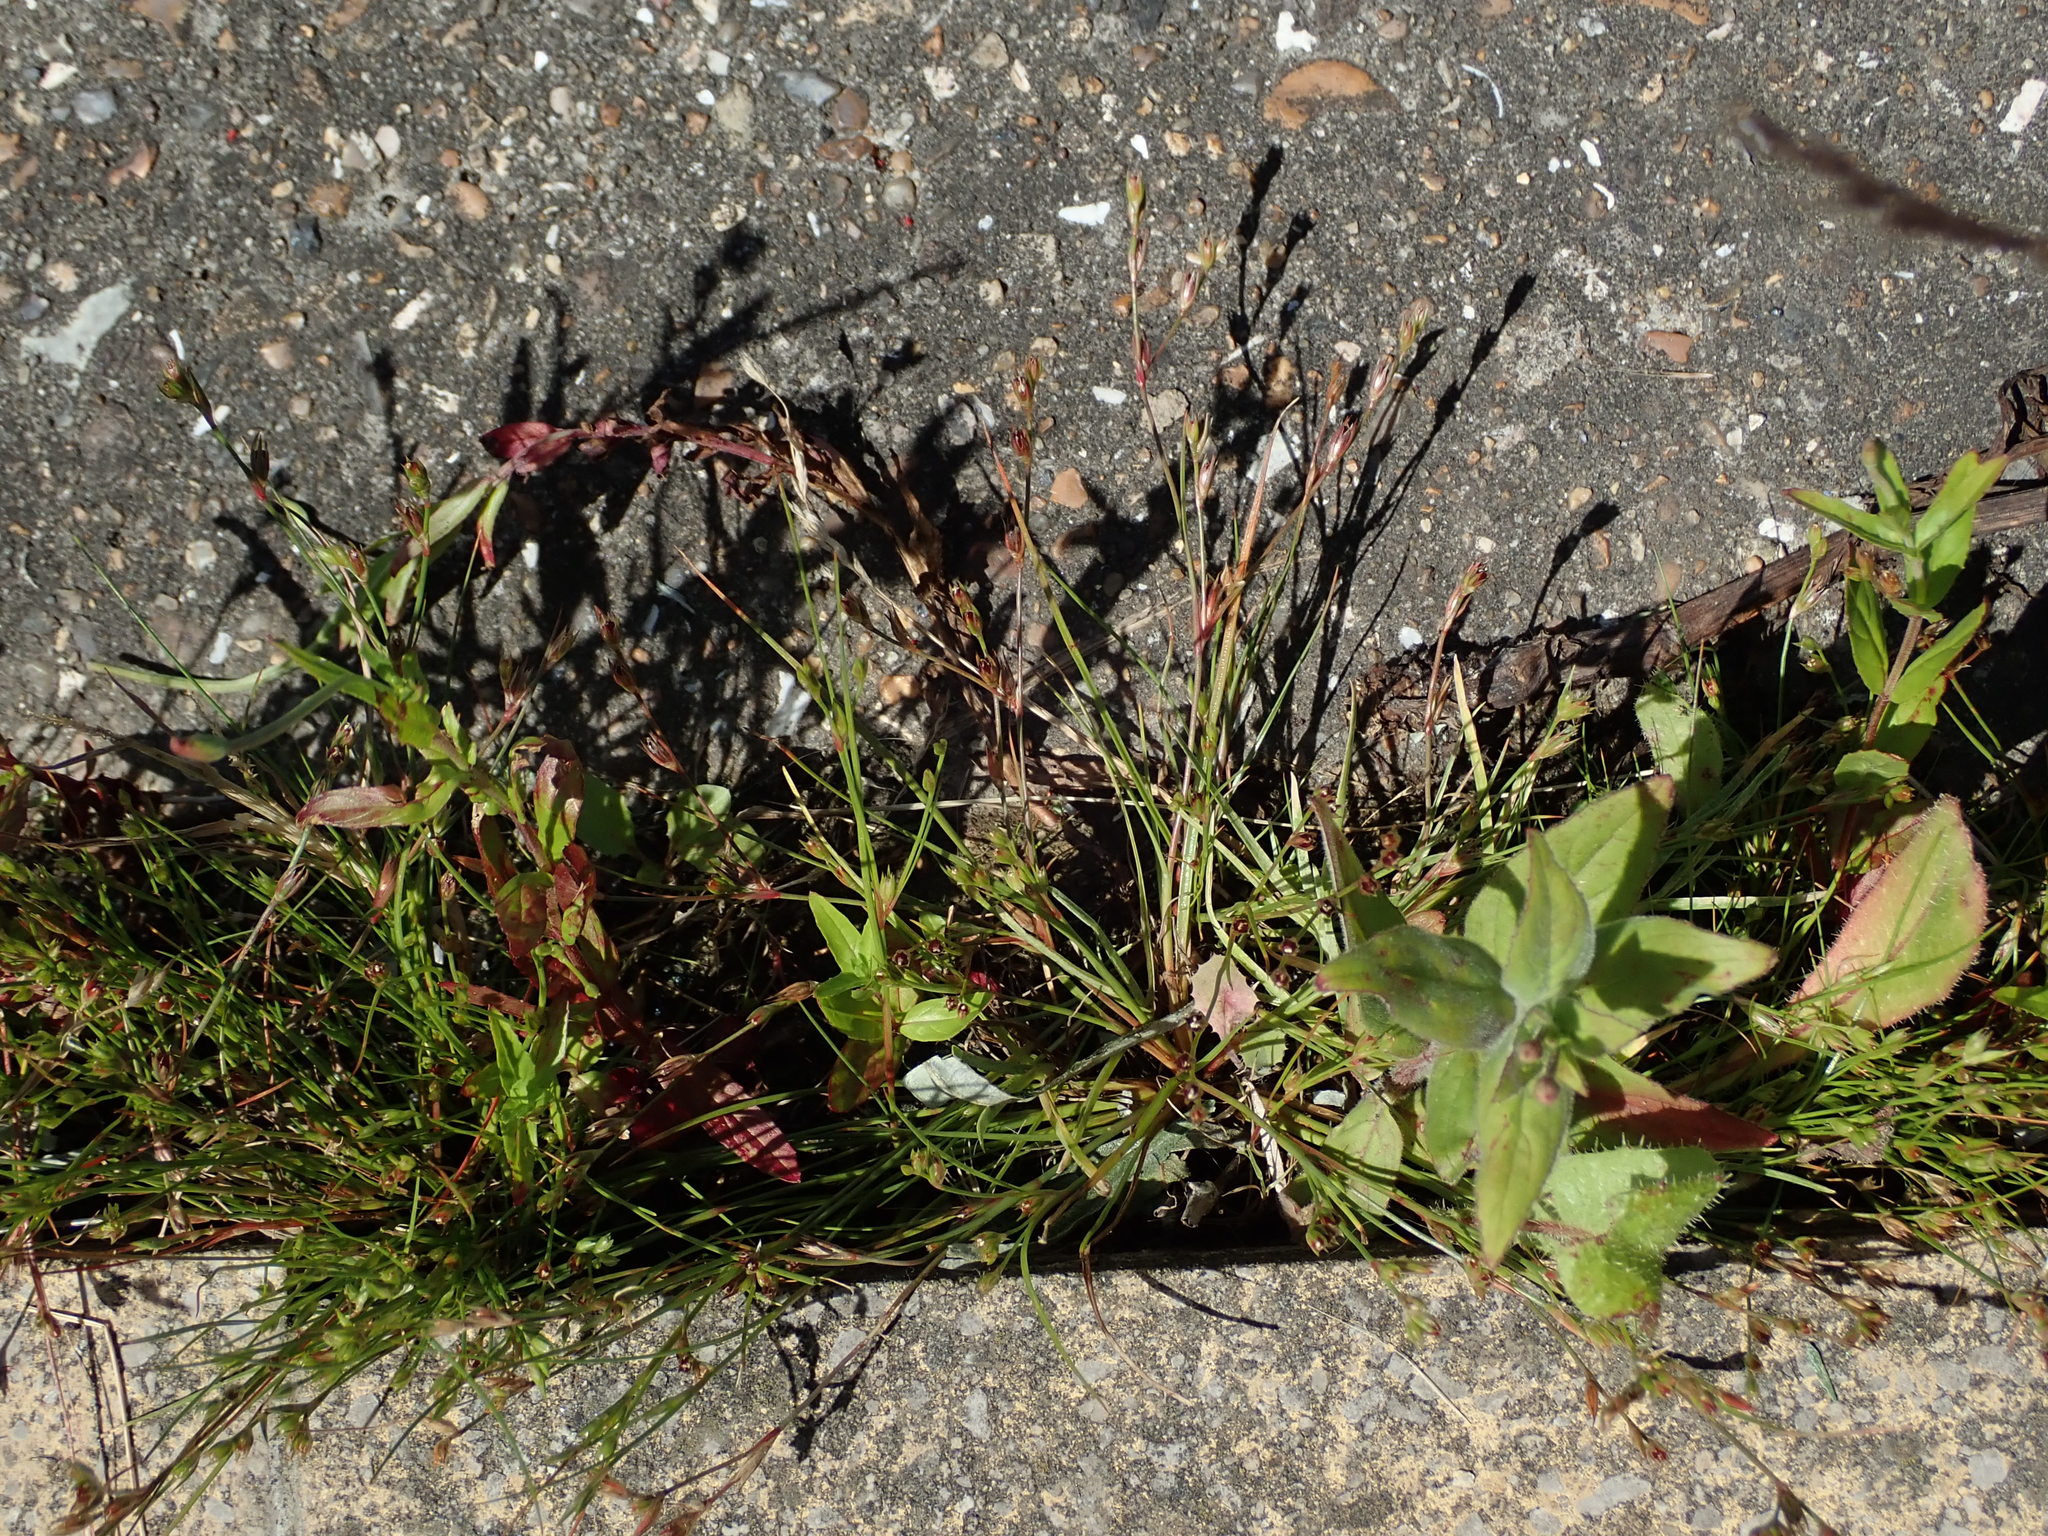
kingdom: Plantae
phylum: Tracheophyta
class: Liliopsida
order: Poales
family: Juncaceae
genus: Juncus
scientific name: Juncus bufonius
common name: Toad rush
